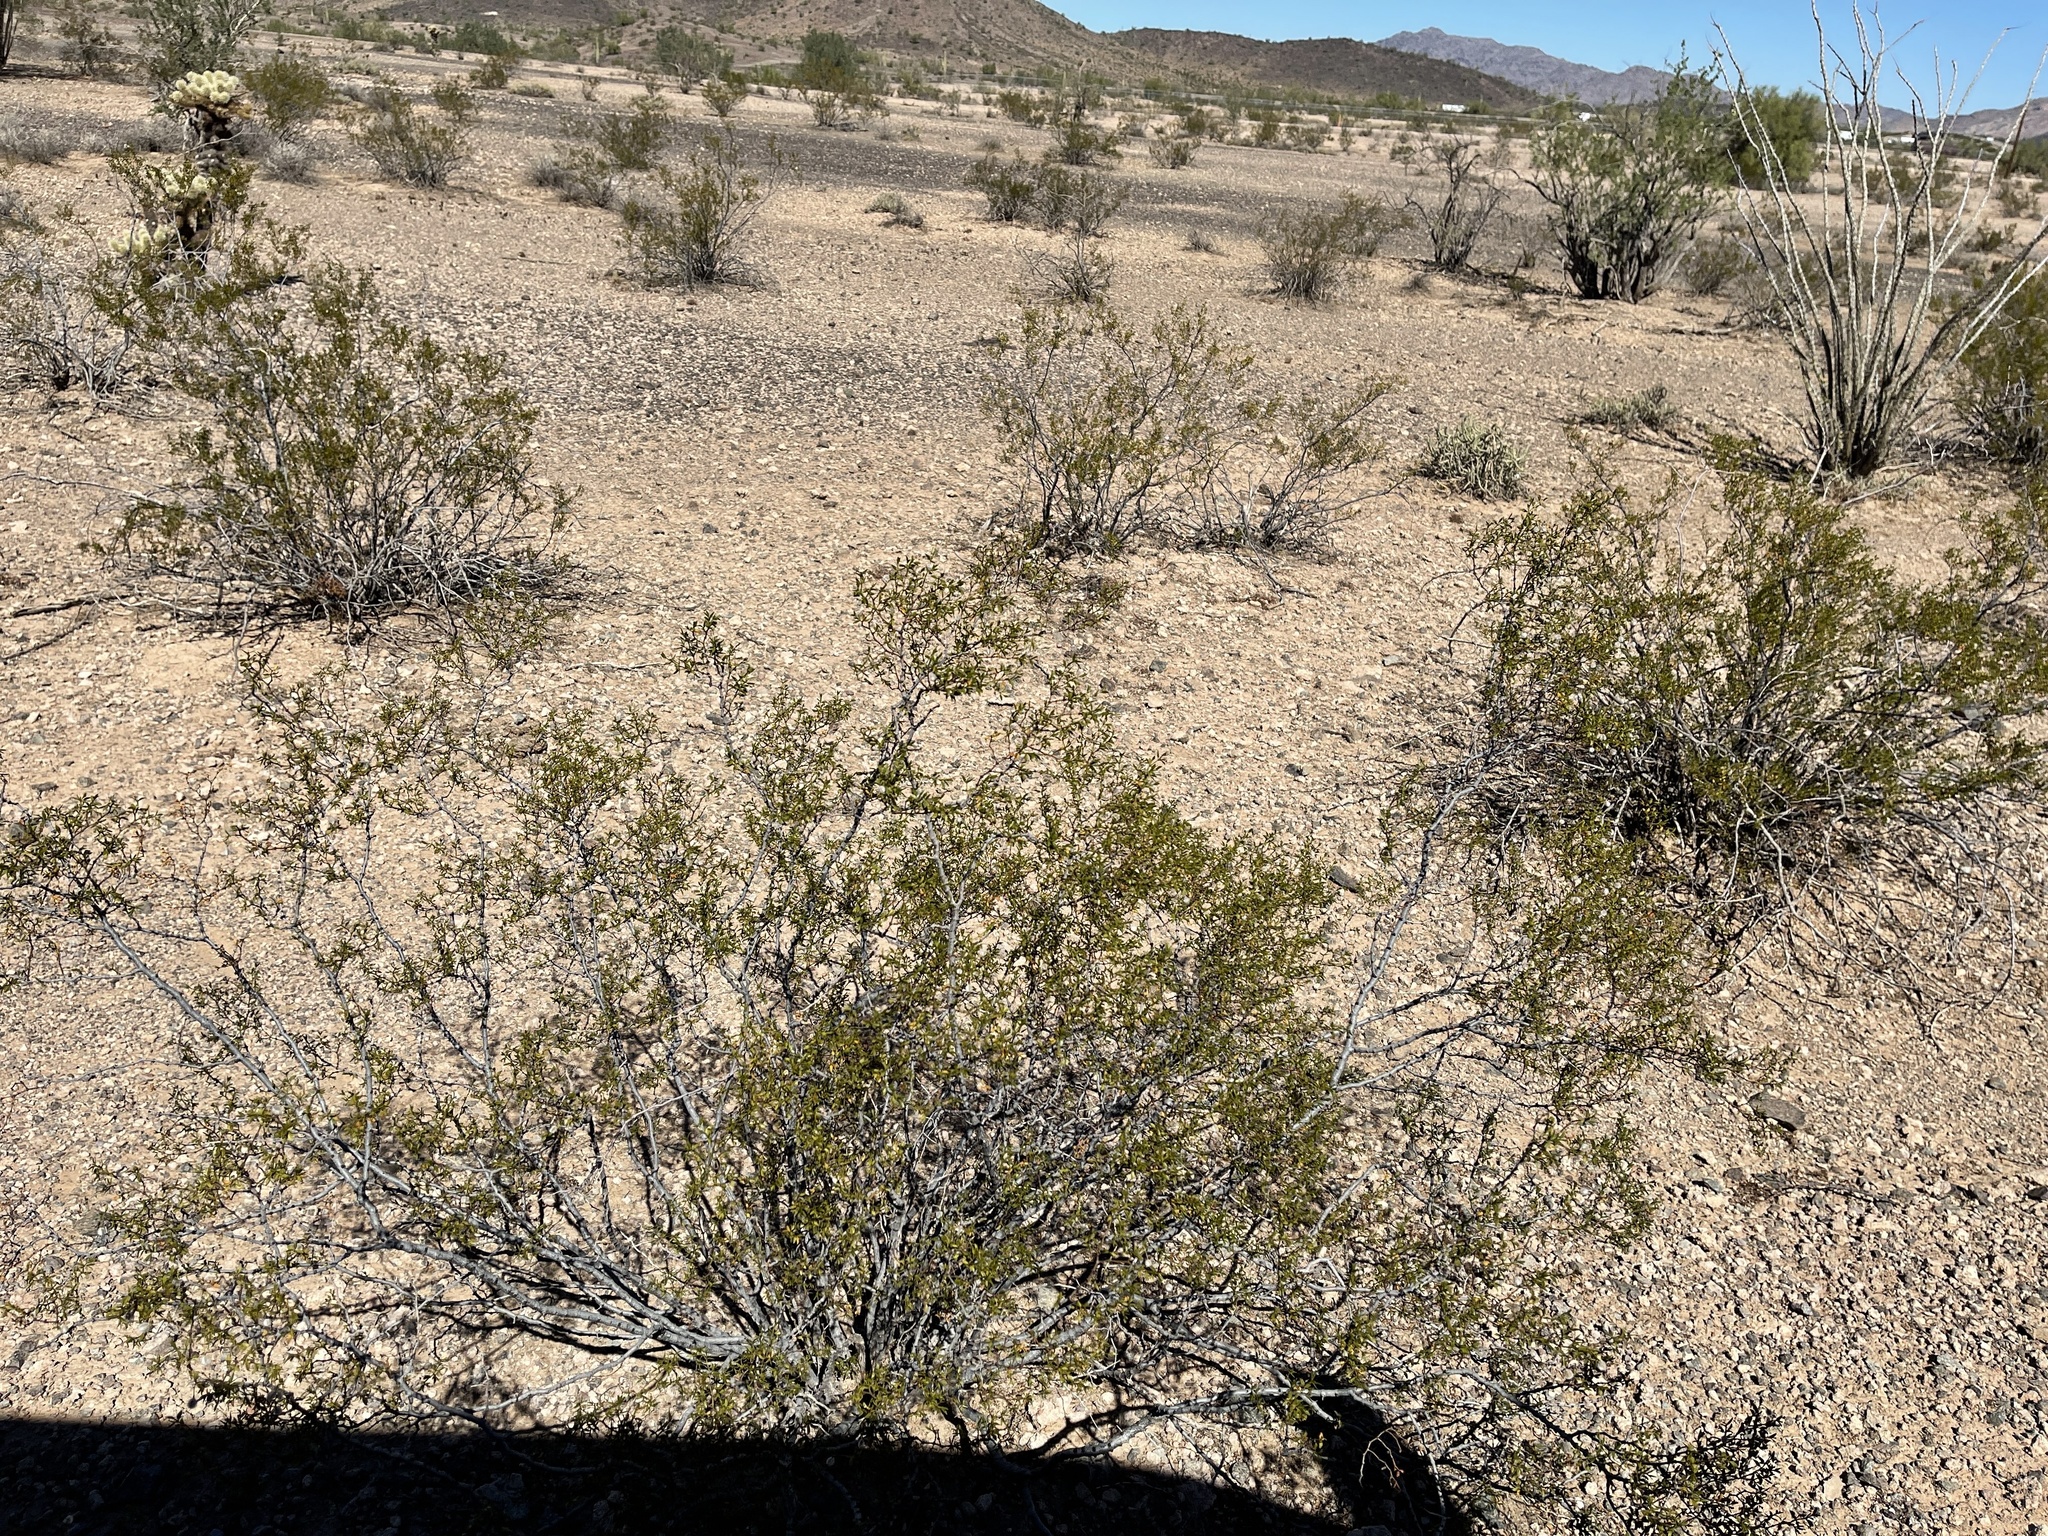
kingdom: Plantae
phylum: Tracheophyta
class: Magnoliopsida
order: Zygophyllales
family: Zygophyllaceae
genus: Larrea
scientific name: Larrea tridentata
